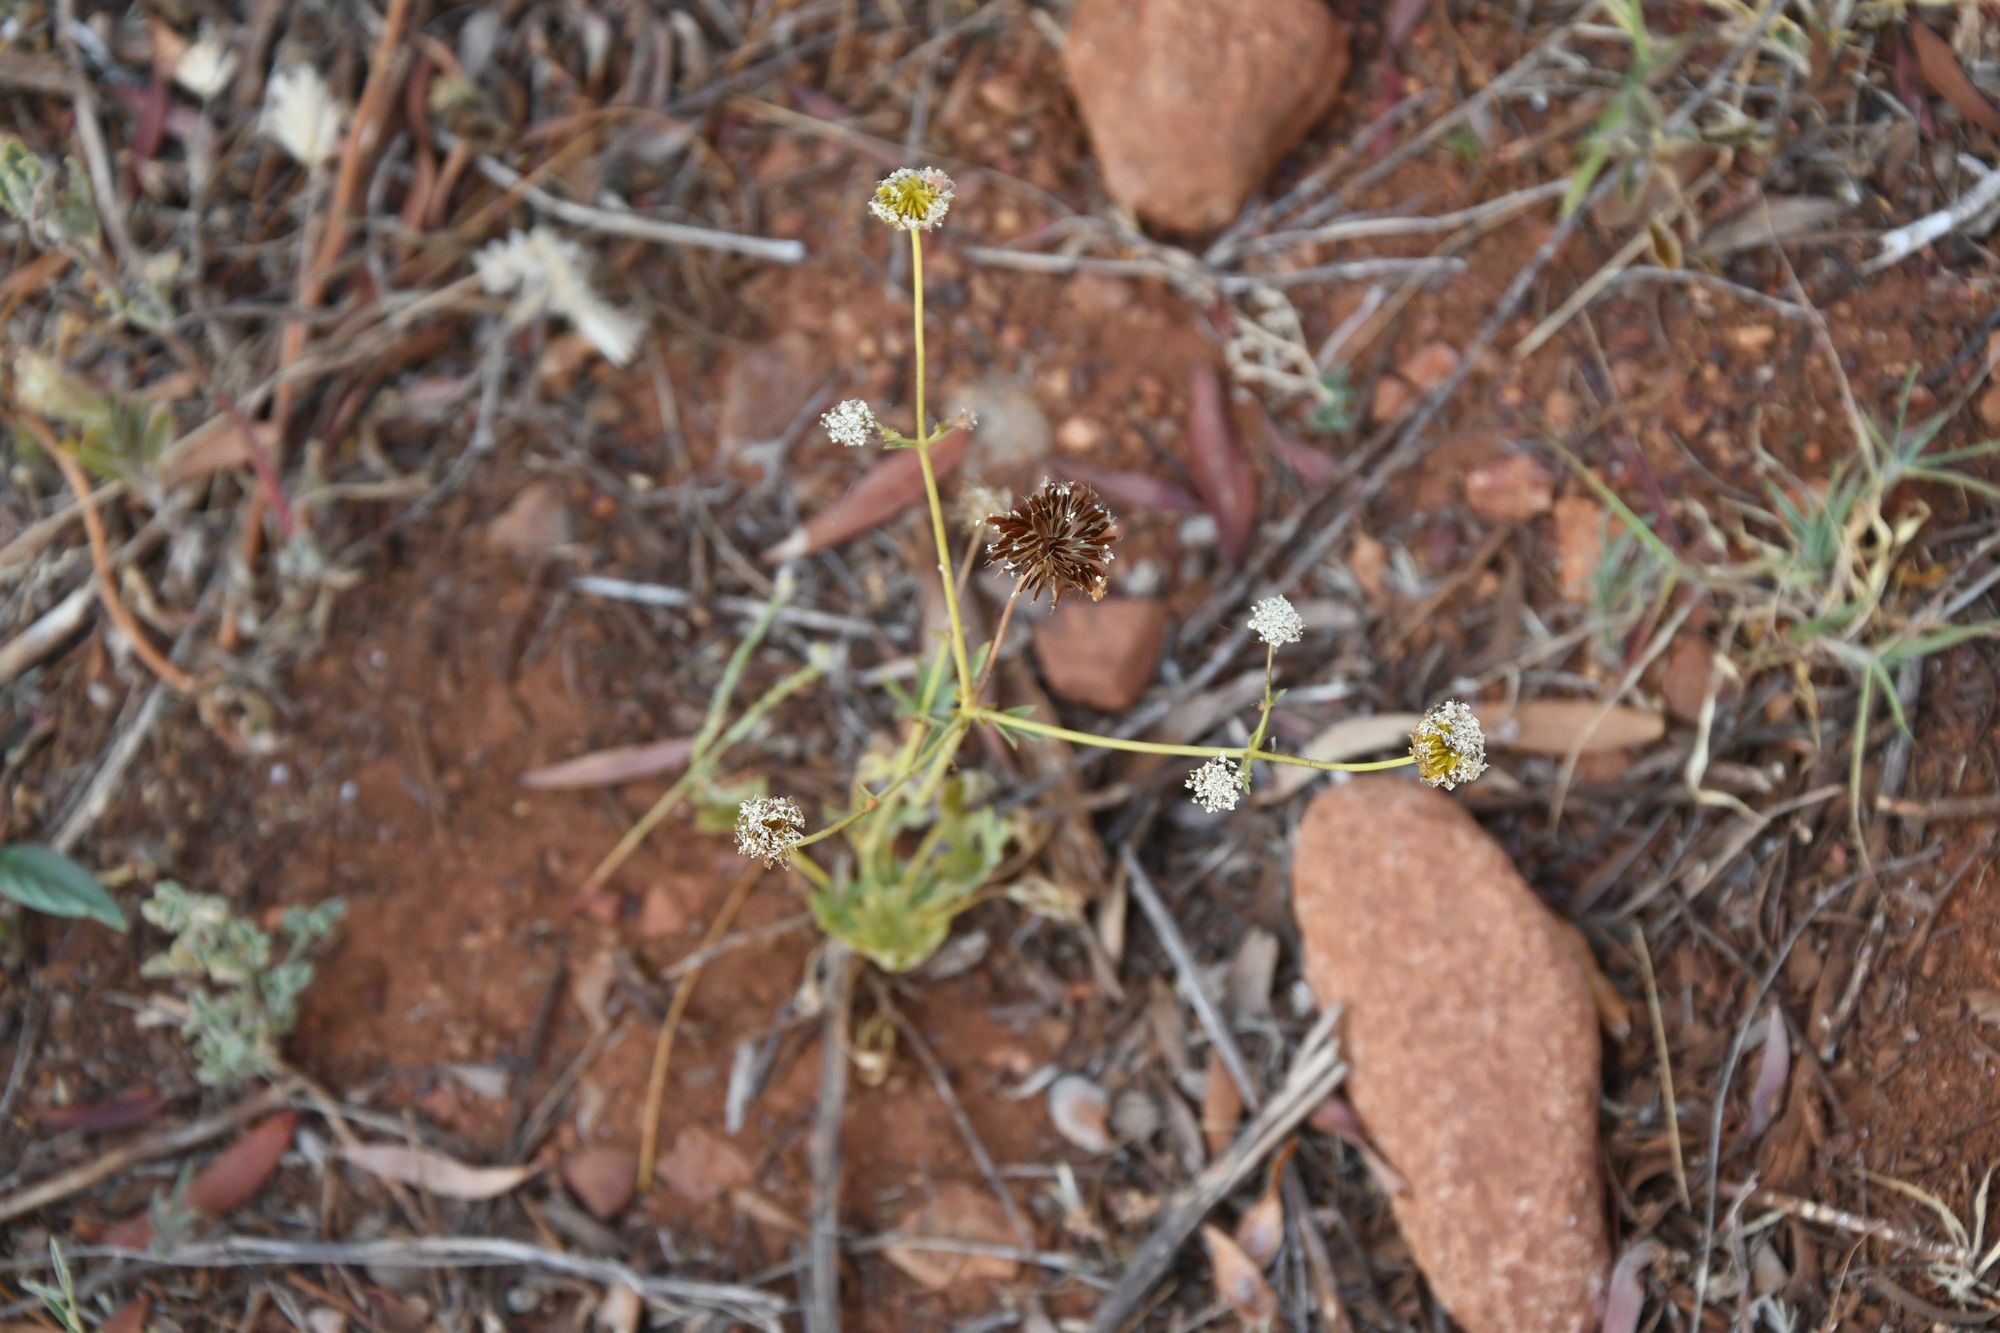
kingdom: Plantae
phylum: Tracheophyta
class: Magnoliopsida
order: Apiales
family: Araliaceae
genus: Trachymene
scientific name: Trachymene glaucifolia
